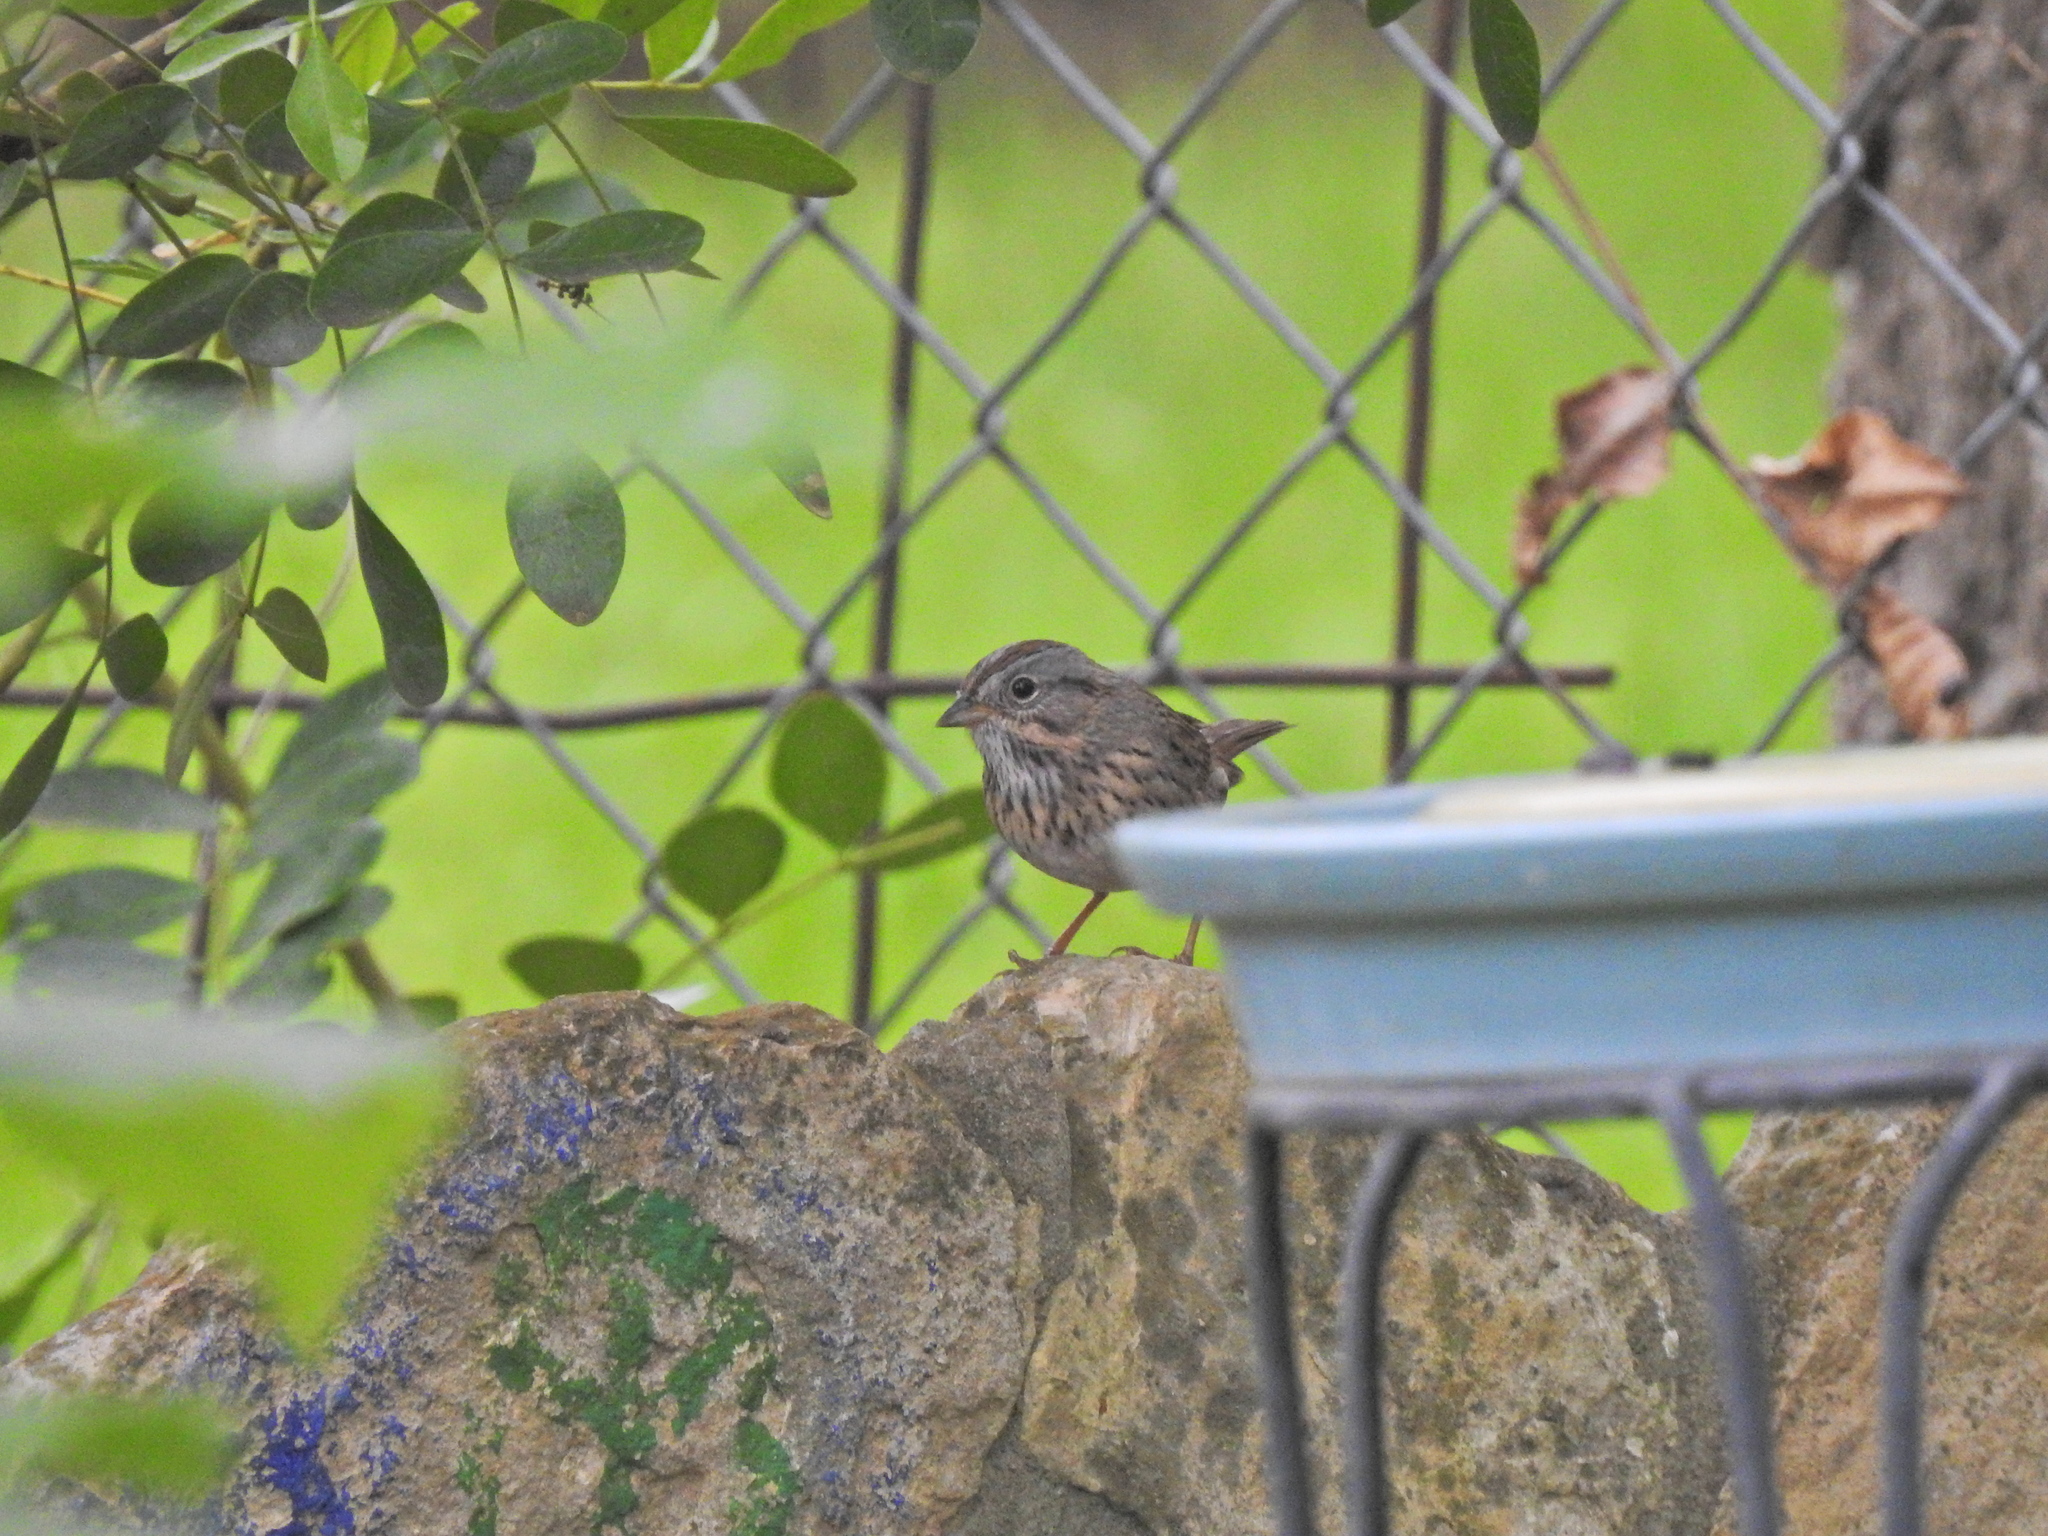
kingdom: Animalia
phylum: Chordata
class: Aves
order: Passeriformes
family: Passerellidae
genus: Melospiza
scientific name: Melospiza lincolnii
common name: Lincoln's sparrow
